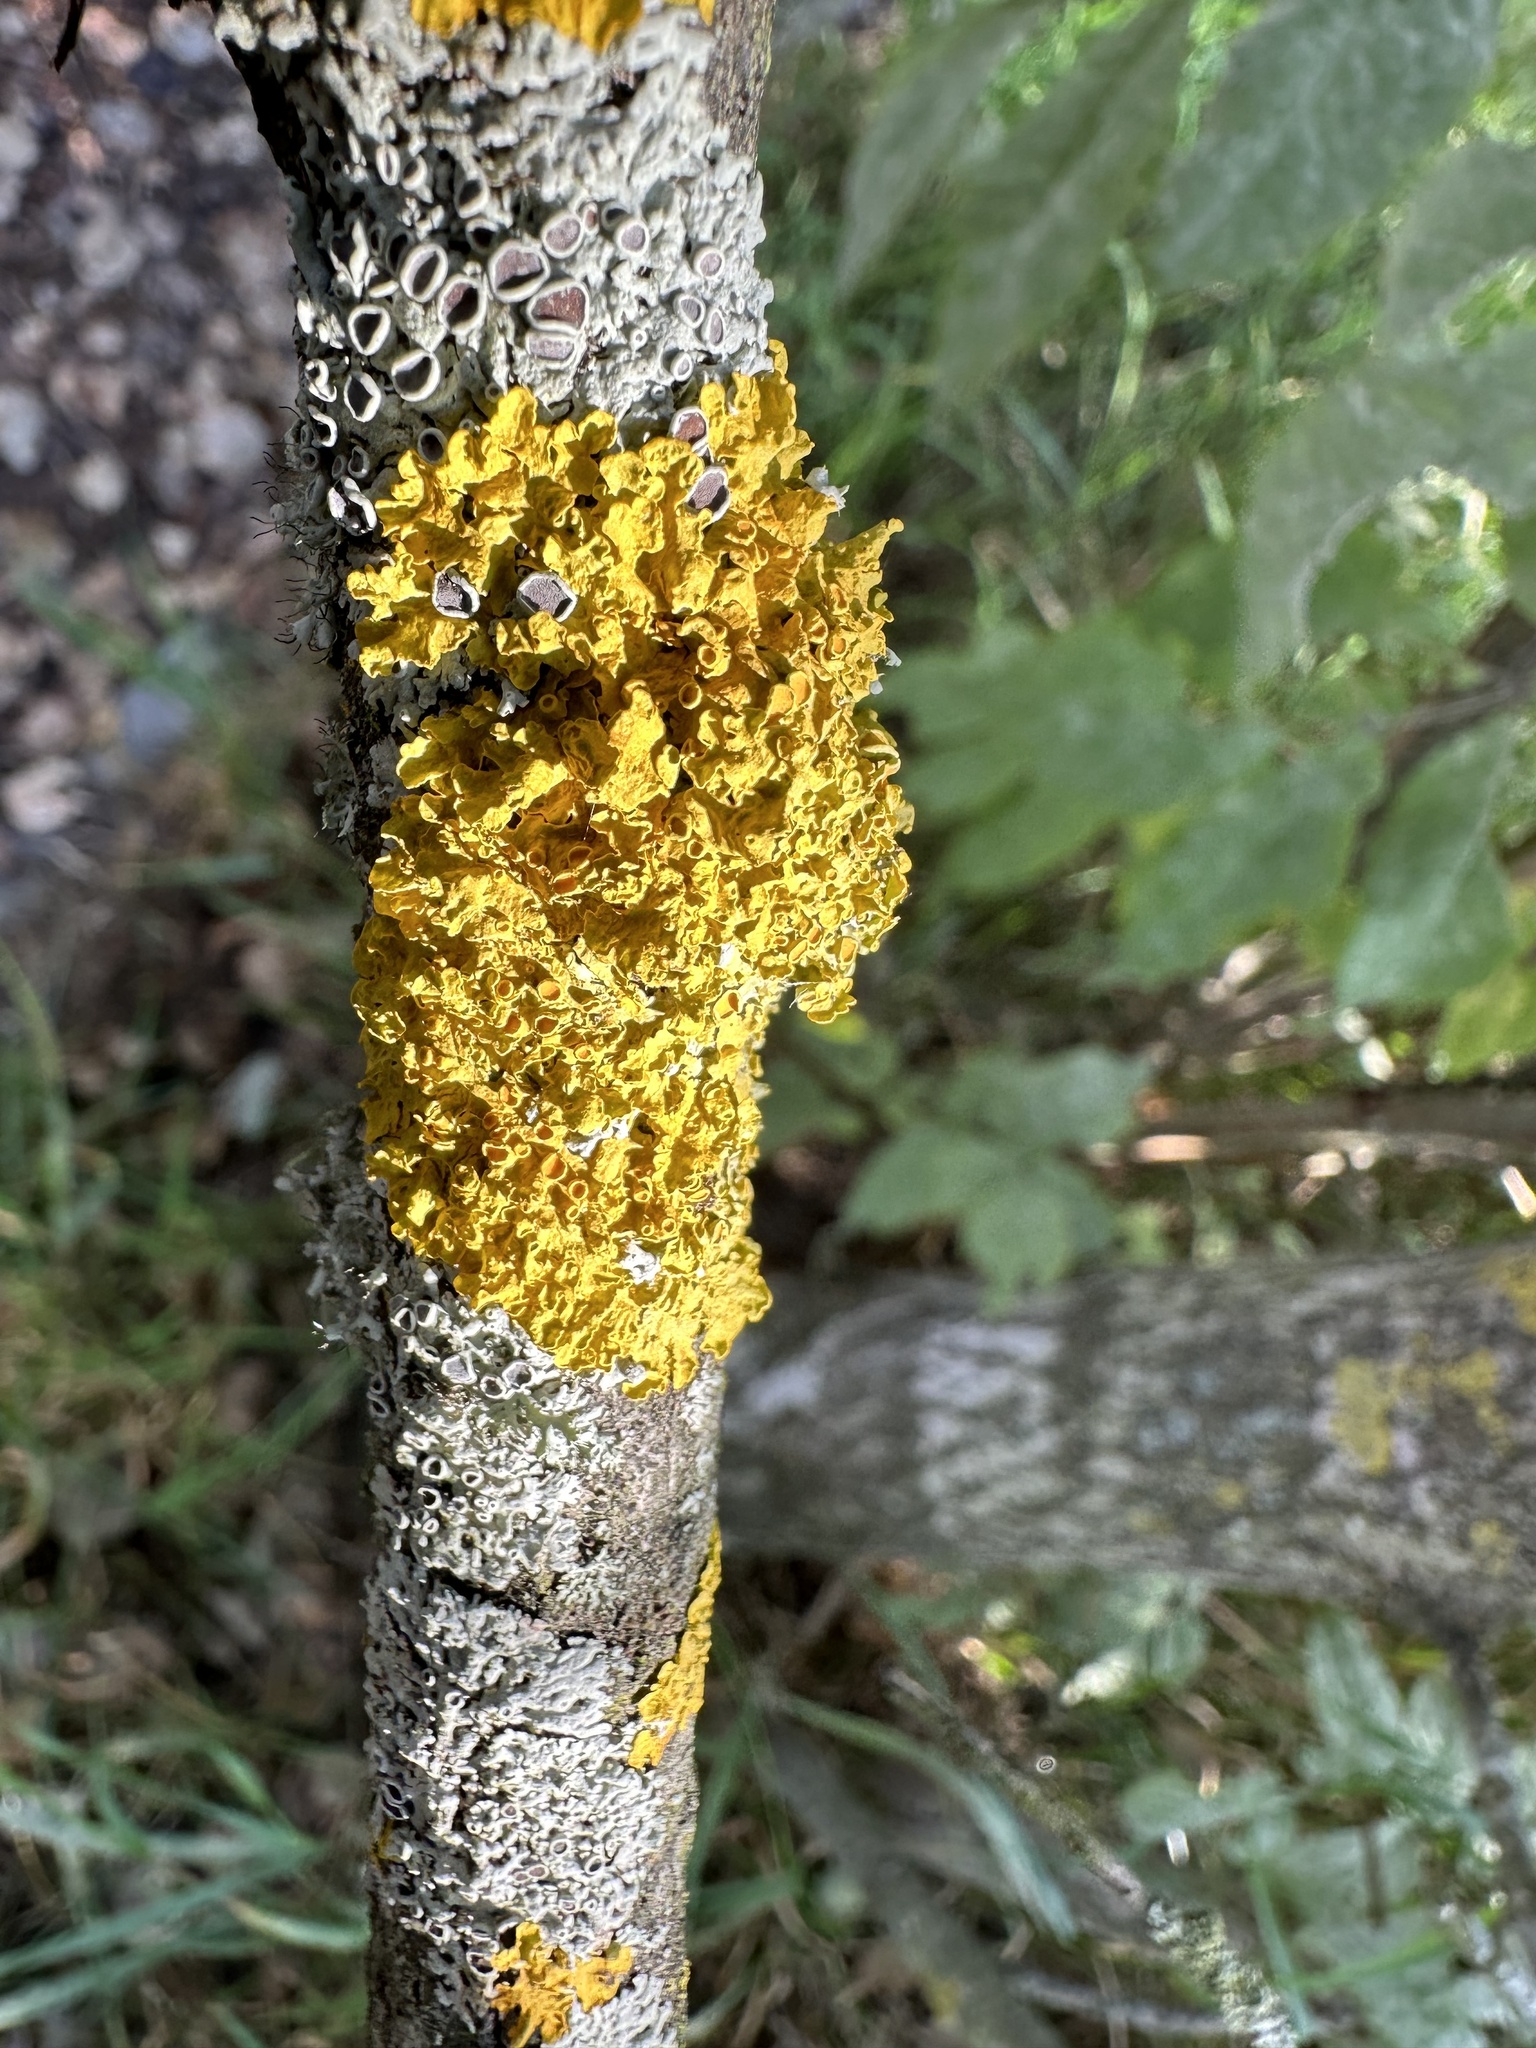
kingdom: Fungi
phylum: Ascomycota
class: Lecanoromycetes
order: Teloschistales
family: Teloschistaceae
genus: Xanthoria
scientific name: Xanthoria parietina
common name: Common orange lichen
